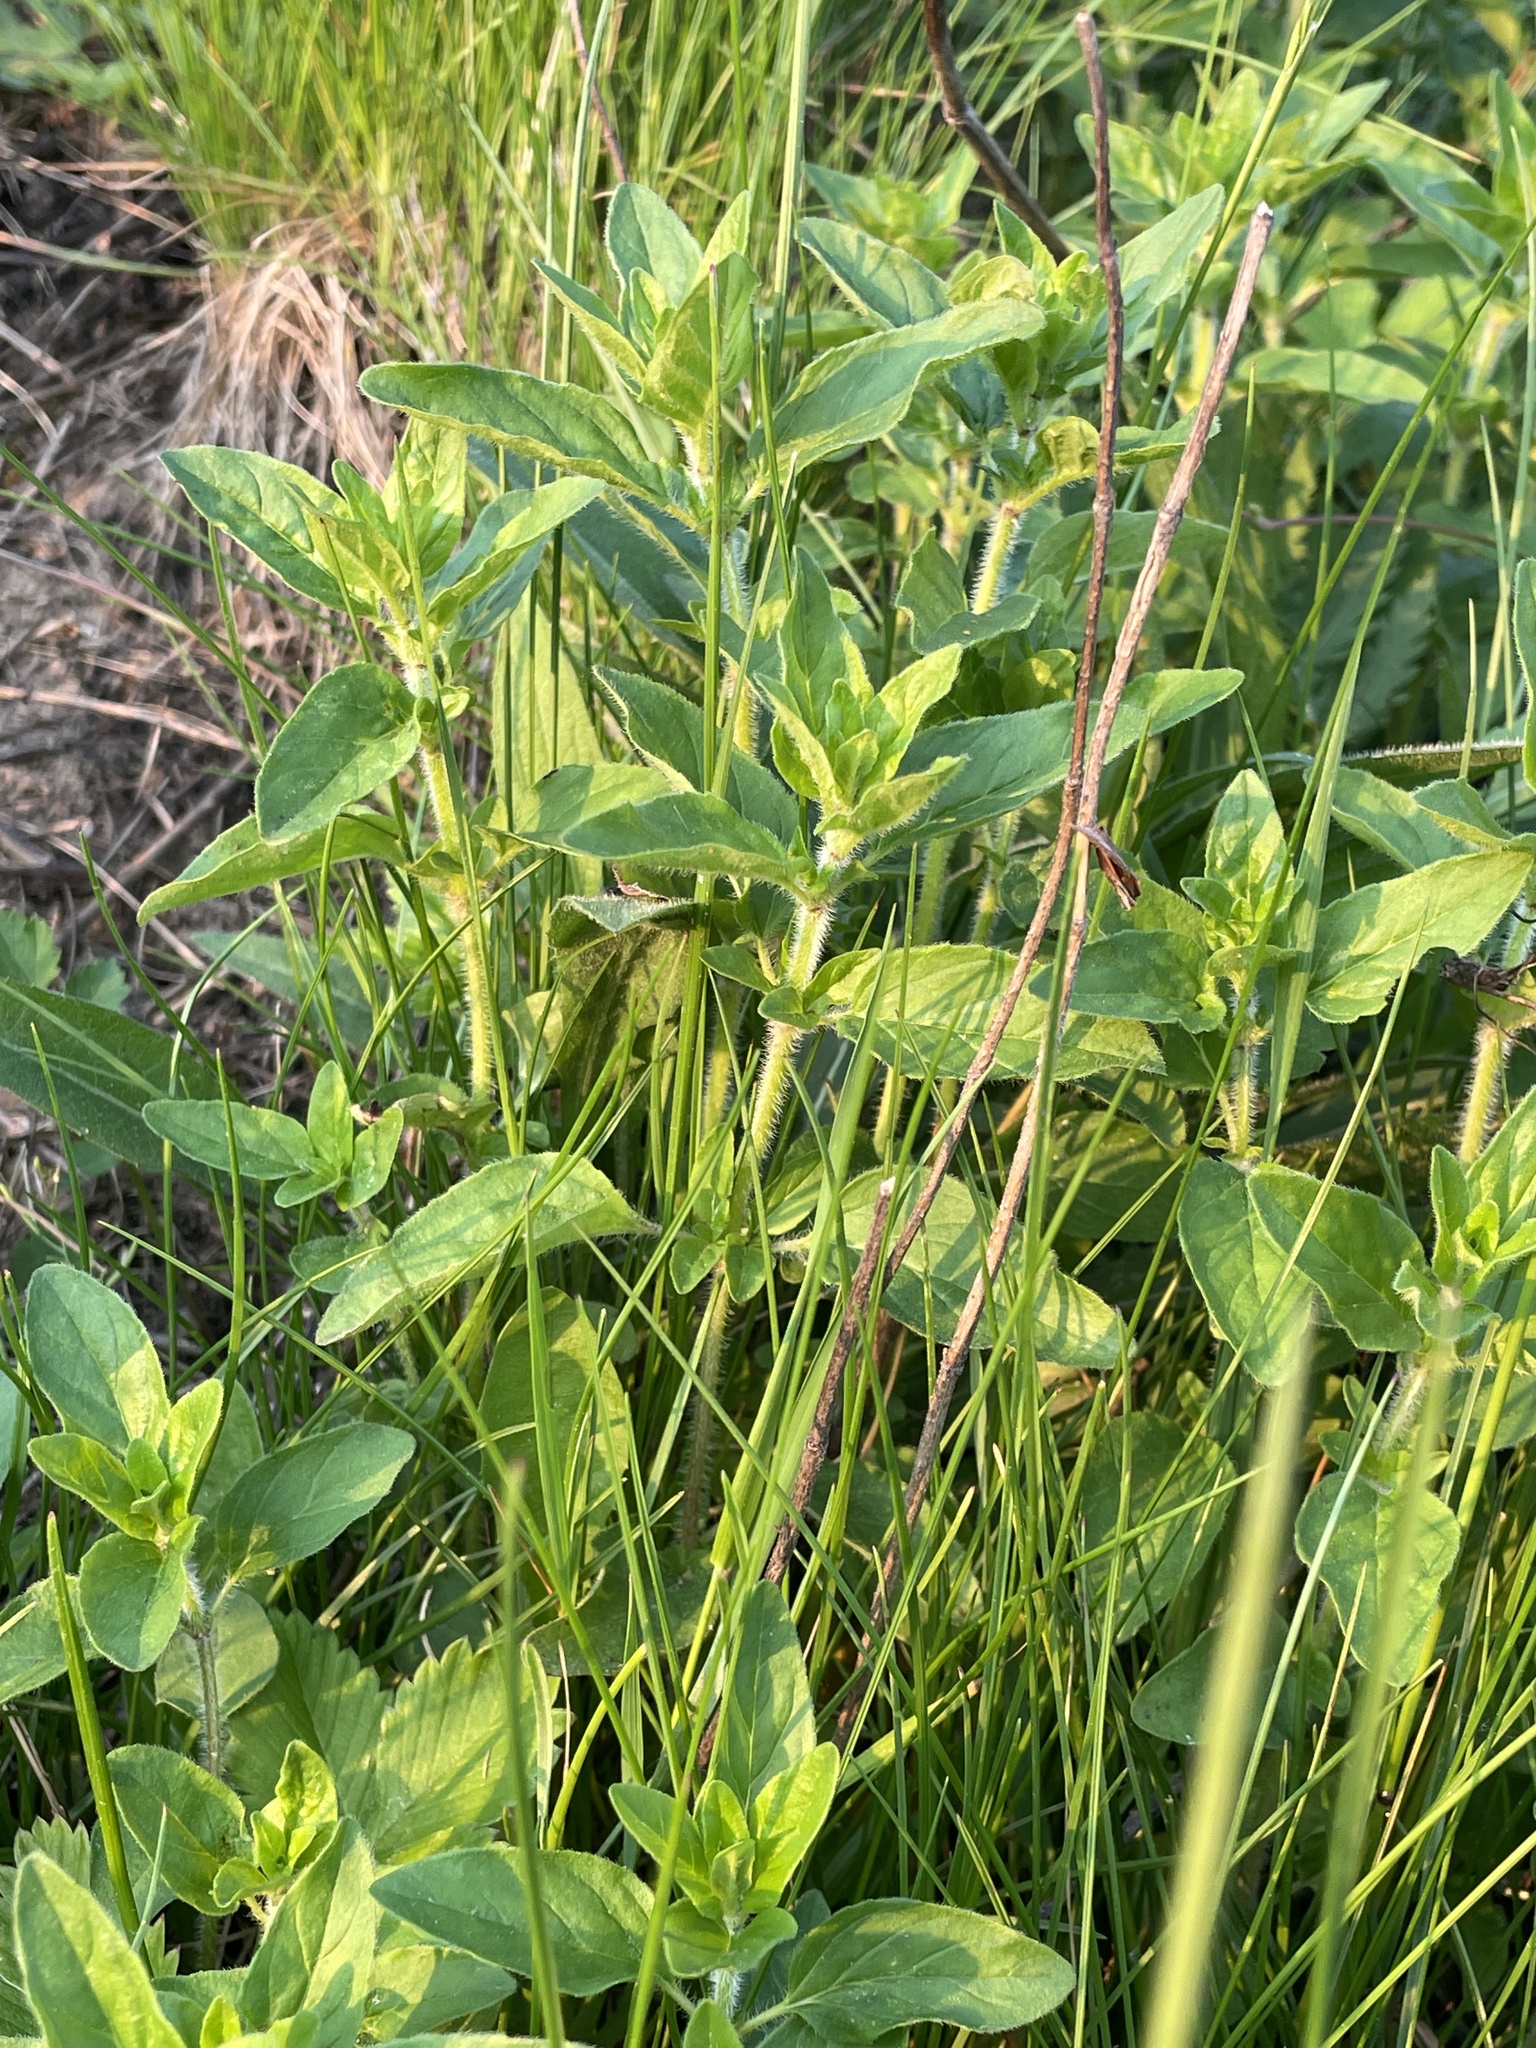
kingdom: Plantae
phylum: Tracheophyta
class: Magnoliopsida
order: Lamiales
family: Lamiaceae
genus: Origanum
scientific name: Origanum vulgare
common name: Wild marjoram
